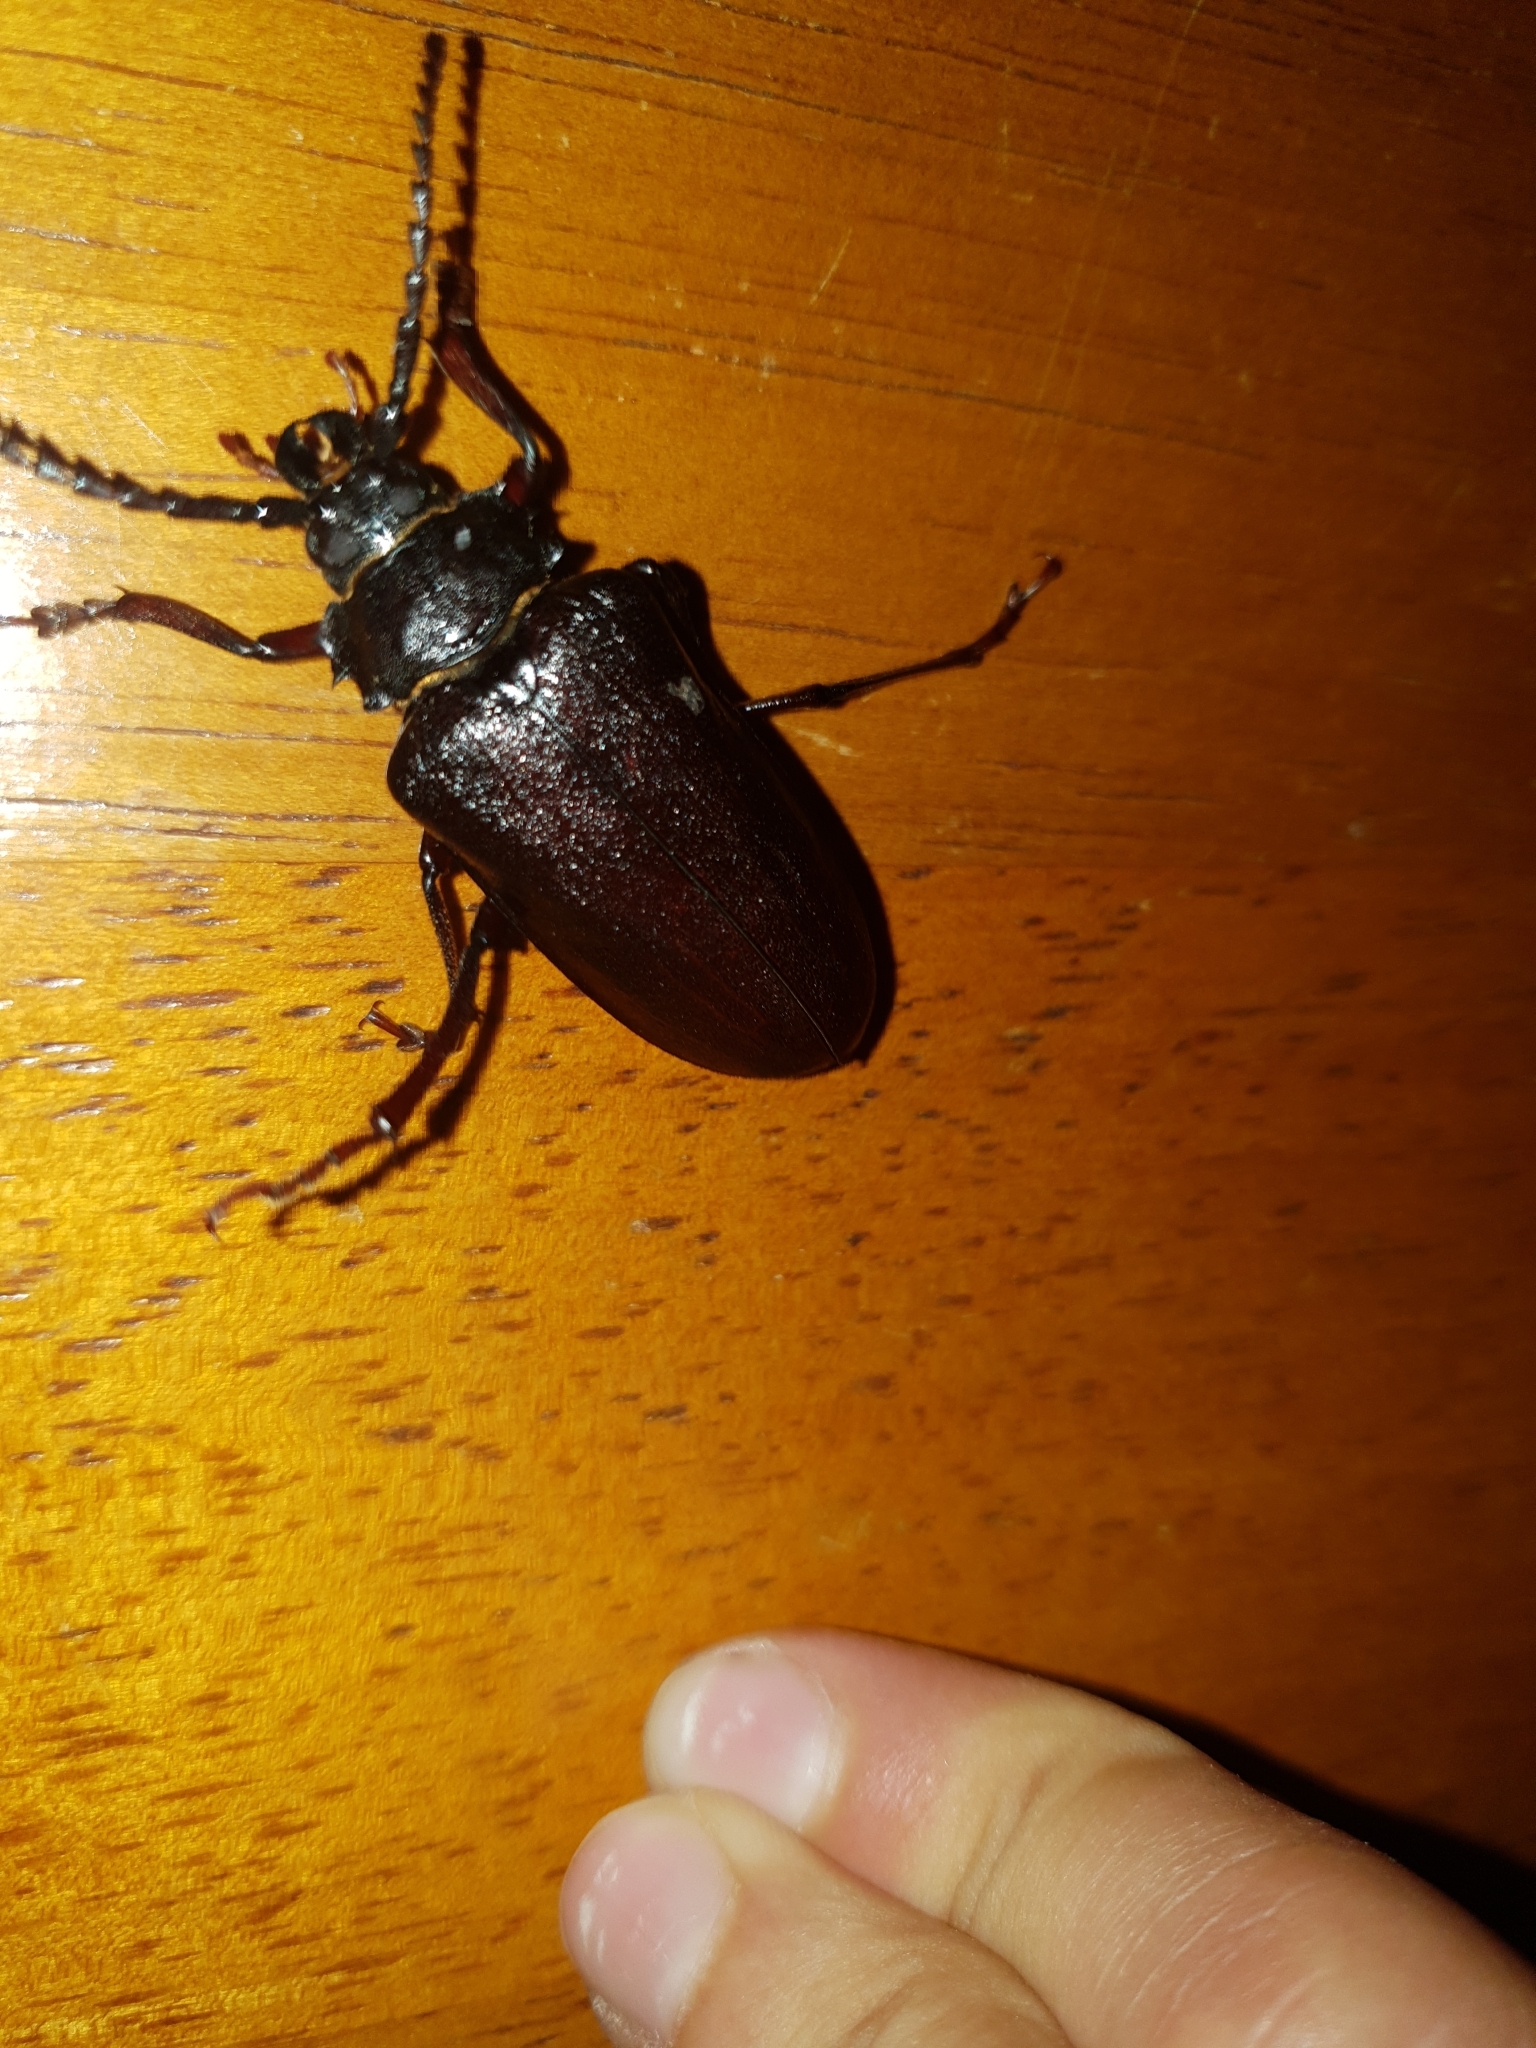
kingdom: Animalia
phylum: Arthropoda
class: Insecta
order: Coleoptera
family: Cerambycidae
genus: Prionus
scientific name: Prionus coriarius
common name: Tanner beetle
